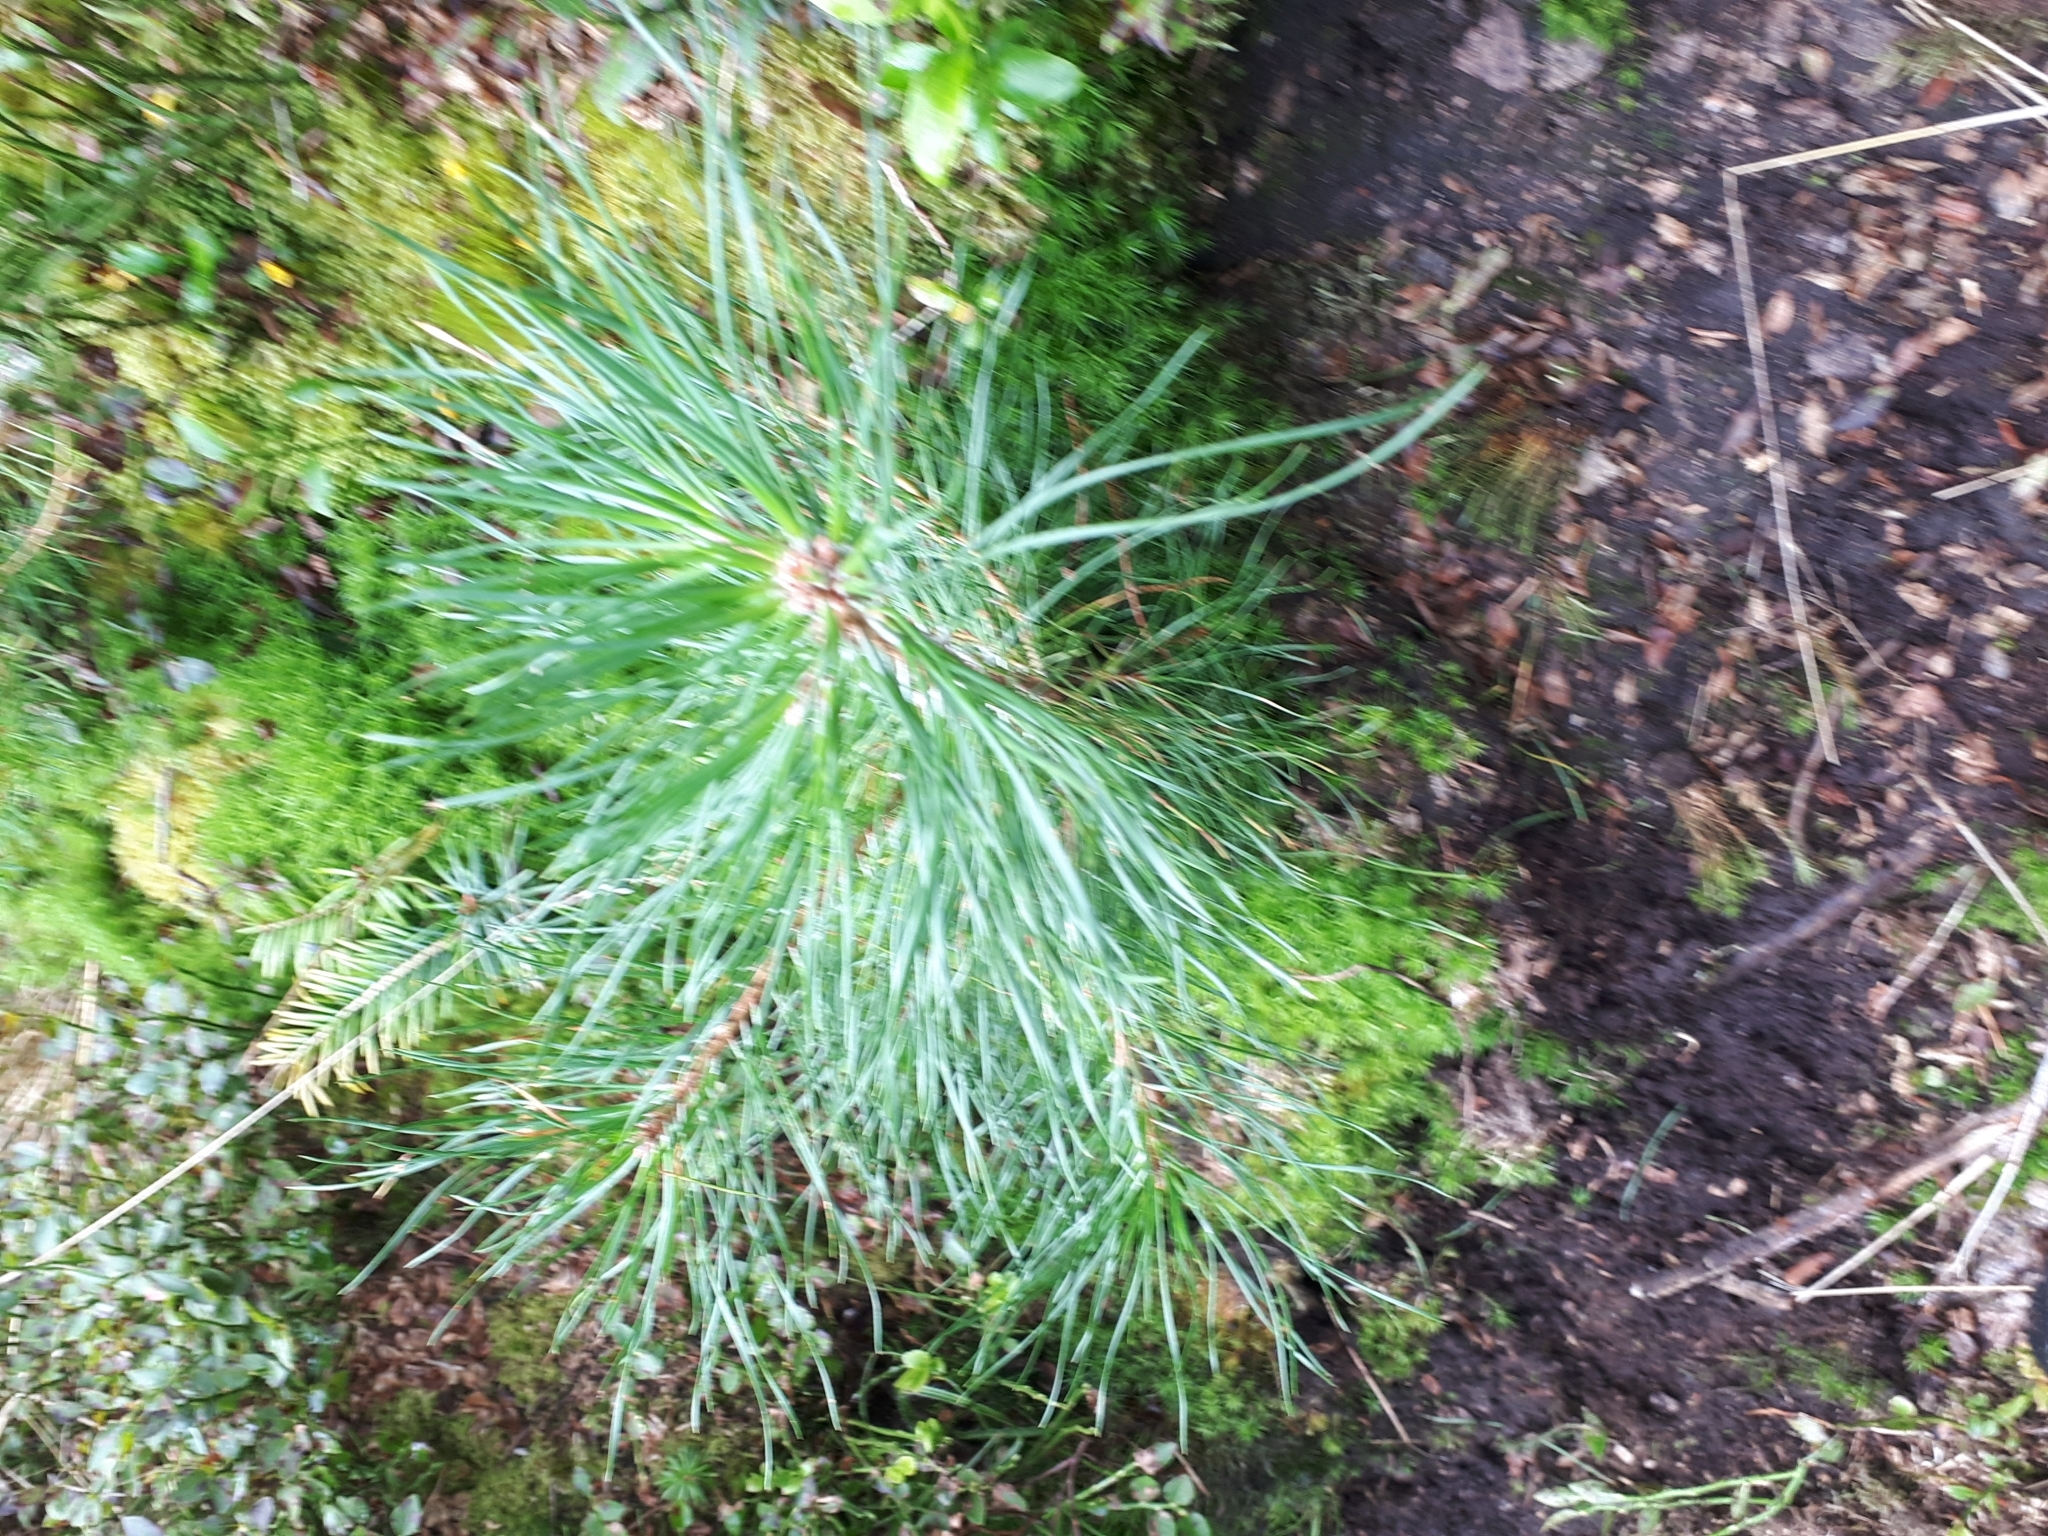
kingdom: Plantae
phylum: Tracheophyta
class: Pinopsida
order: Pinales
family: Pinaceae
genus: Pinus
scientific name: Pinus sylvestris
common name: Scots pine
